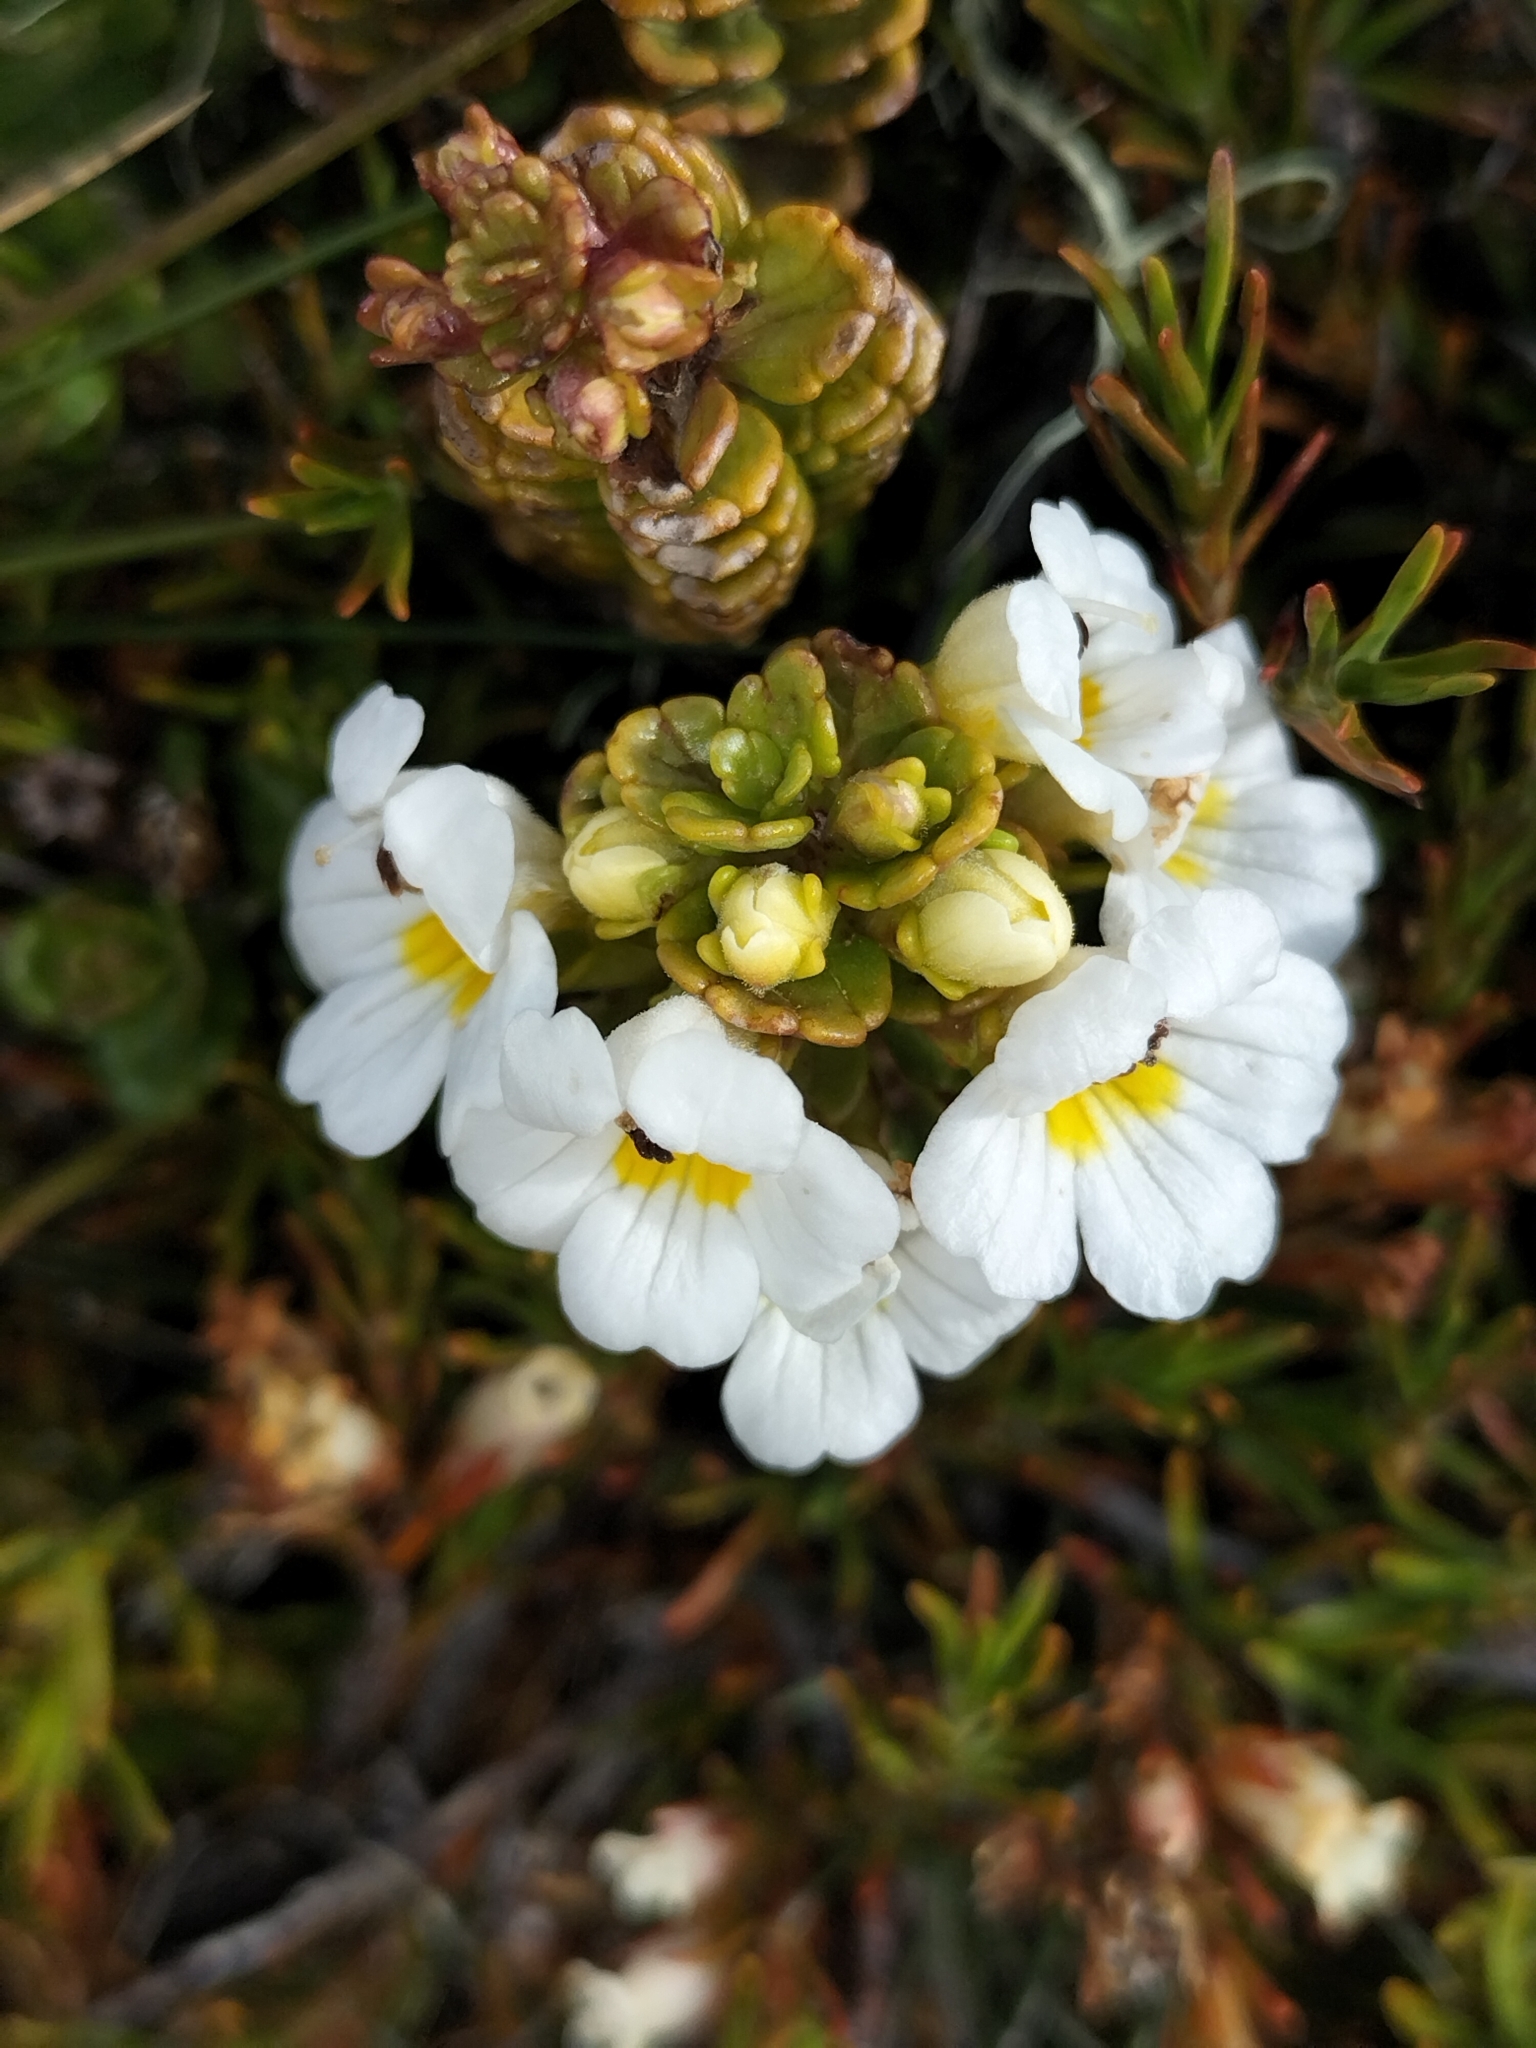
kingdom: Plantae
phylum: Tracheophyta
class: Magnoliopsida
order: Lamiales
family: Orobanchaceae
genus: Euphrasia
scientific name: Euphrasia monroi
